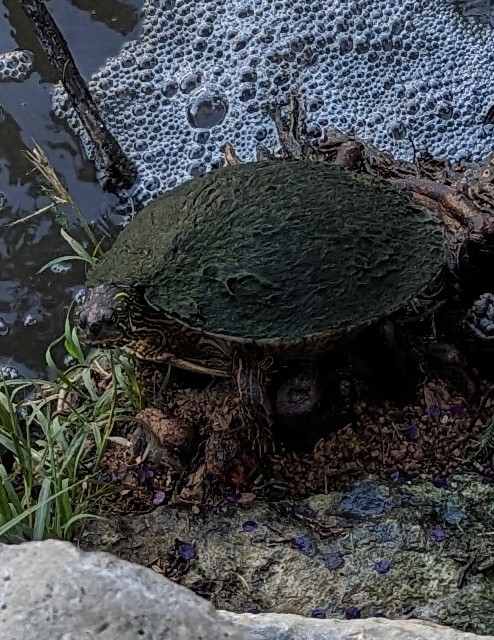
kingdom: Animalia
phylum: Chordata
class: Testudines
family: Emydidae
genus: Pseudemys
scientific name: Pseudemys texana
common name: Texas river cooter
